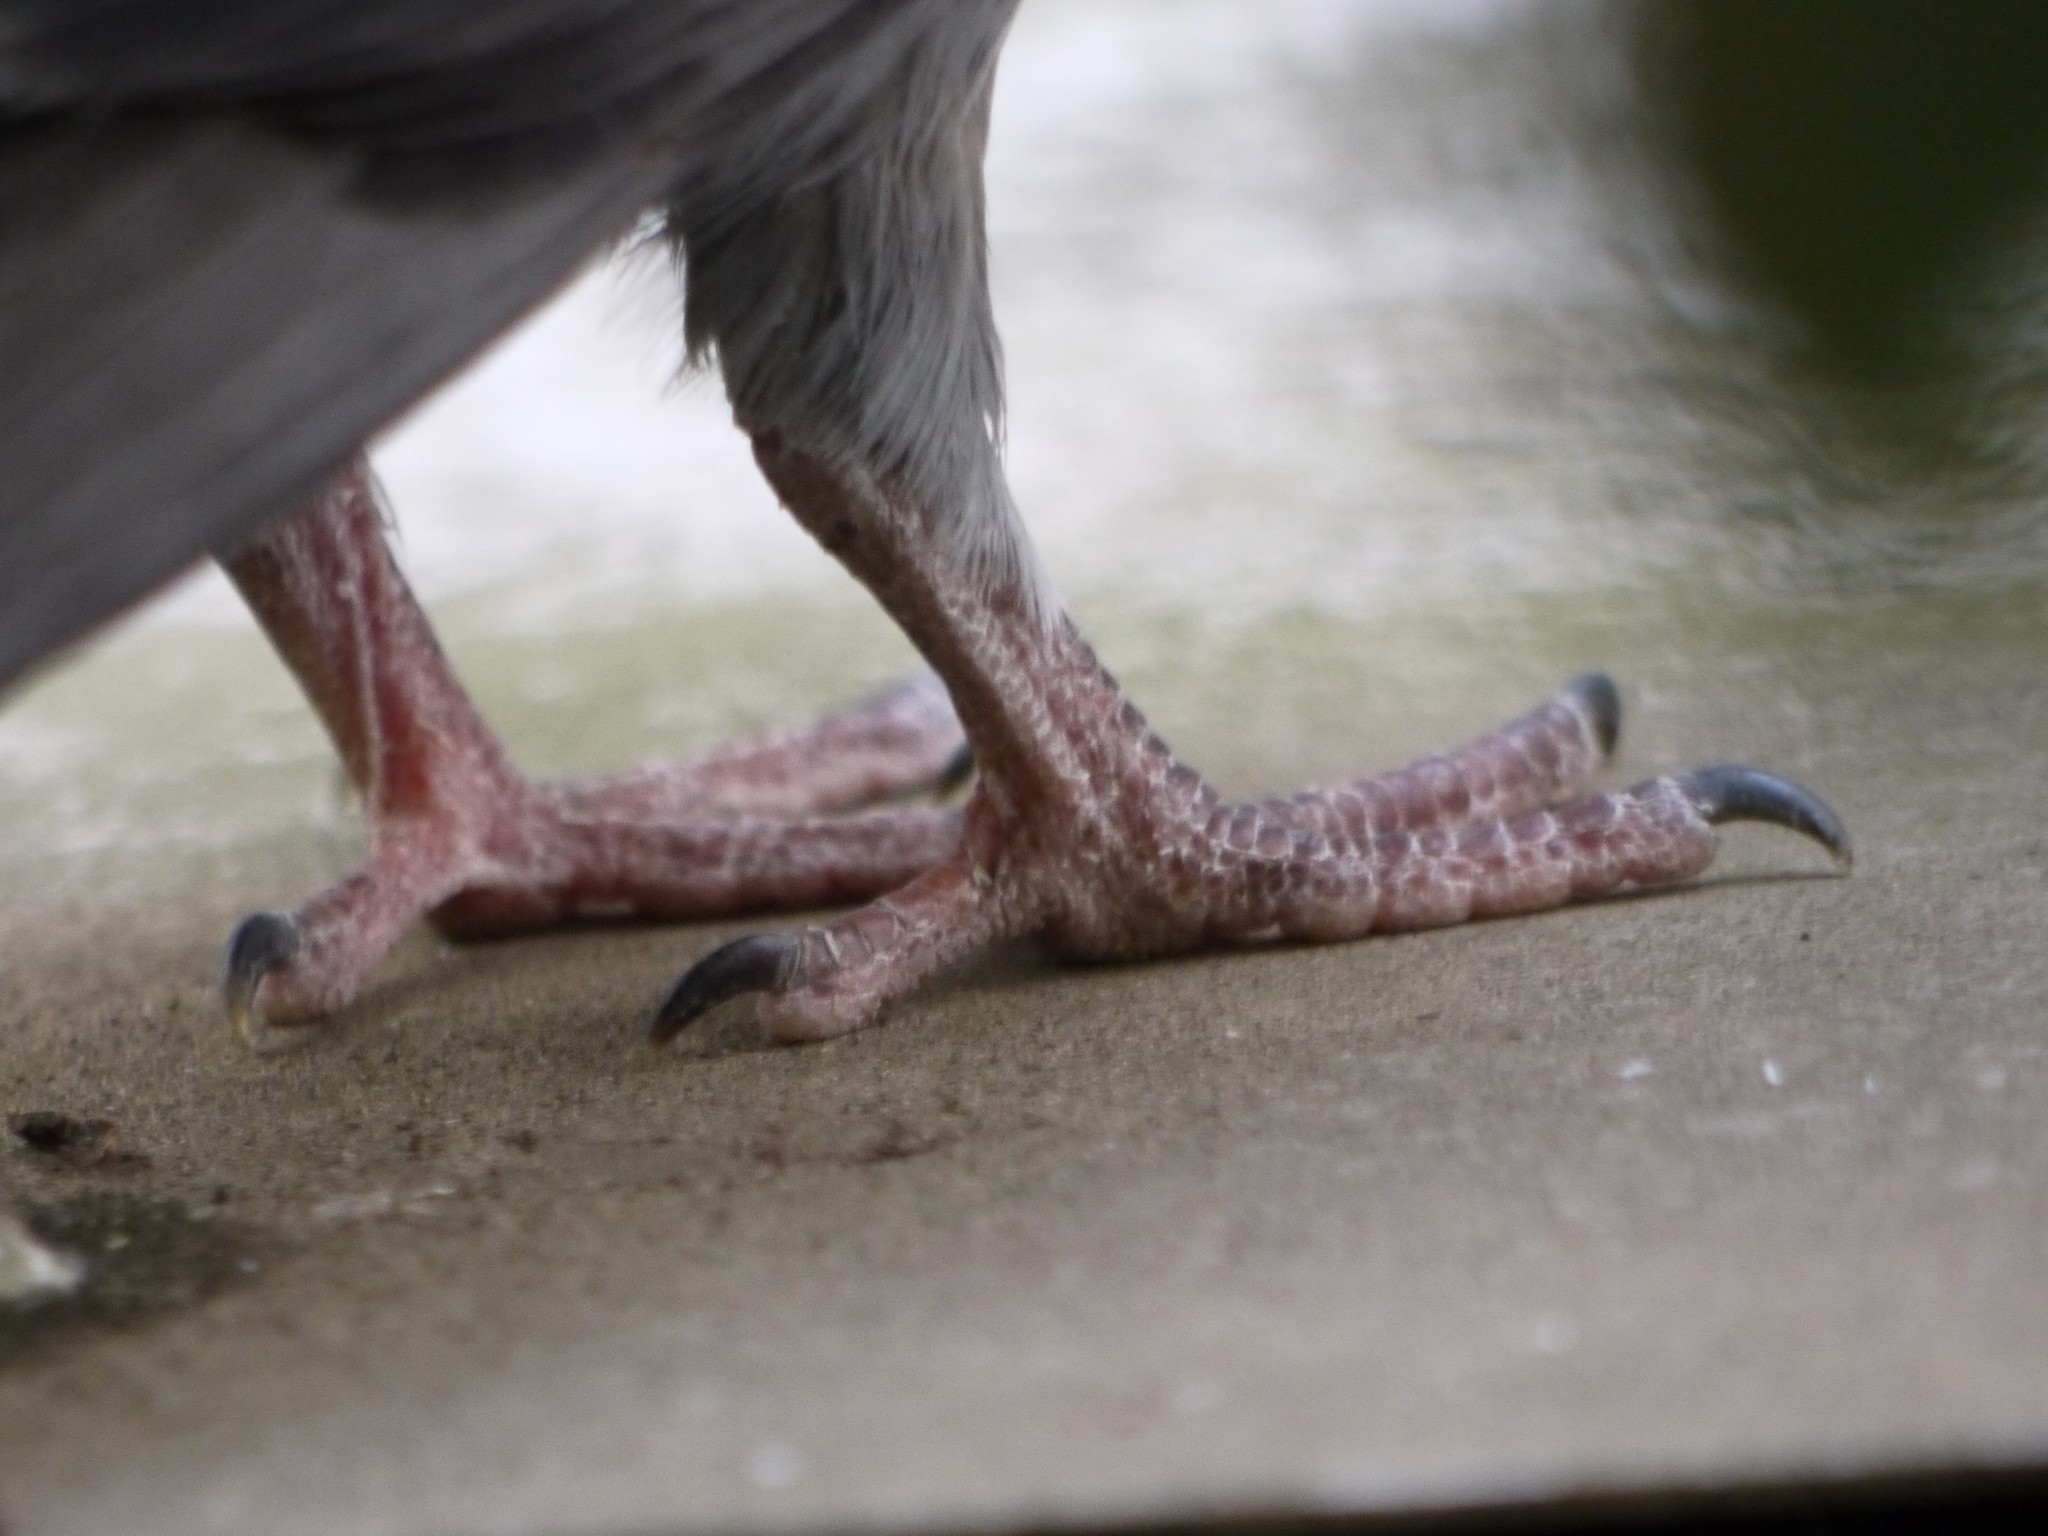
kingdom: Animalia
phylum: Chordata
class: Aves
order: Columbiformes
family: Columbidae
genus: Columba
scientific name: Columba livia
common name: Rock pigeon
